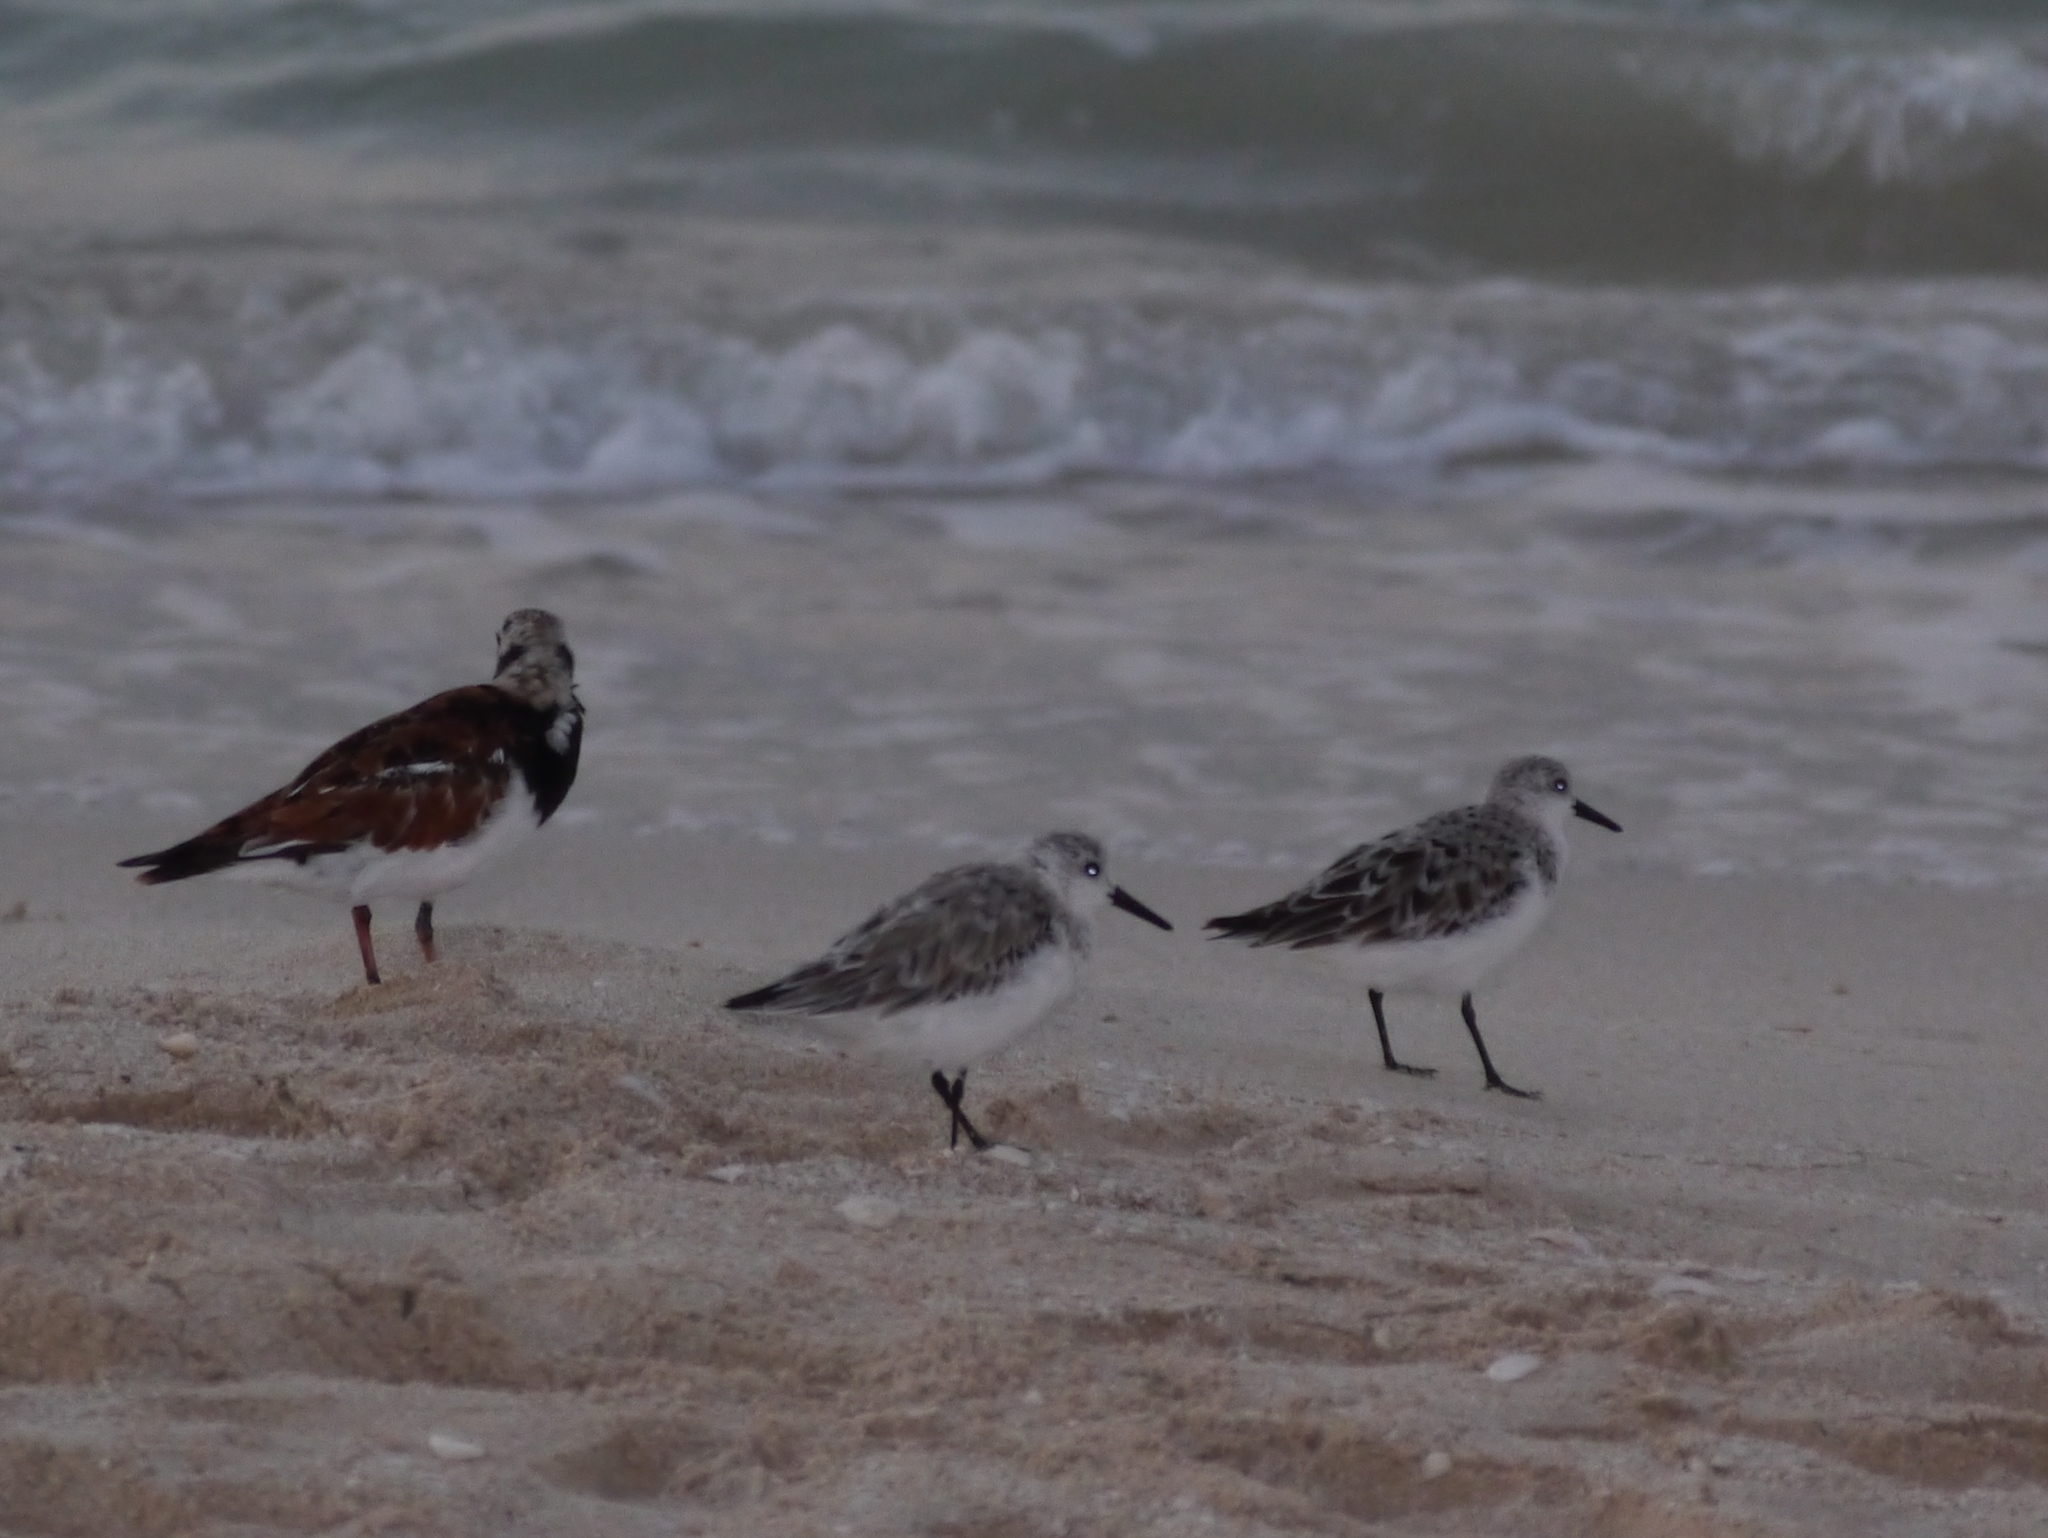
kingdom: Animalia
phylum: Chordata
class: Aves
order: Charadriiformes
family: Scolopacidae
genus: Calidris
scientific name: Calidris alba
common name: Sanderling
